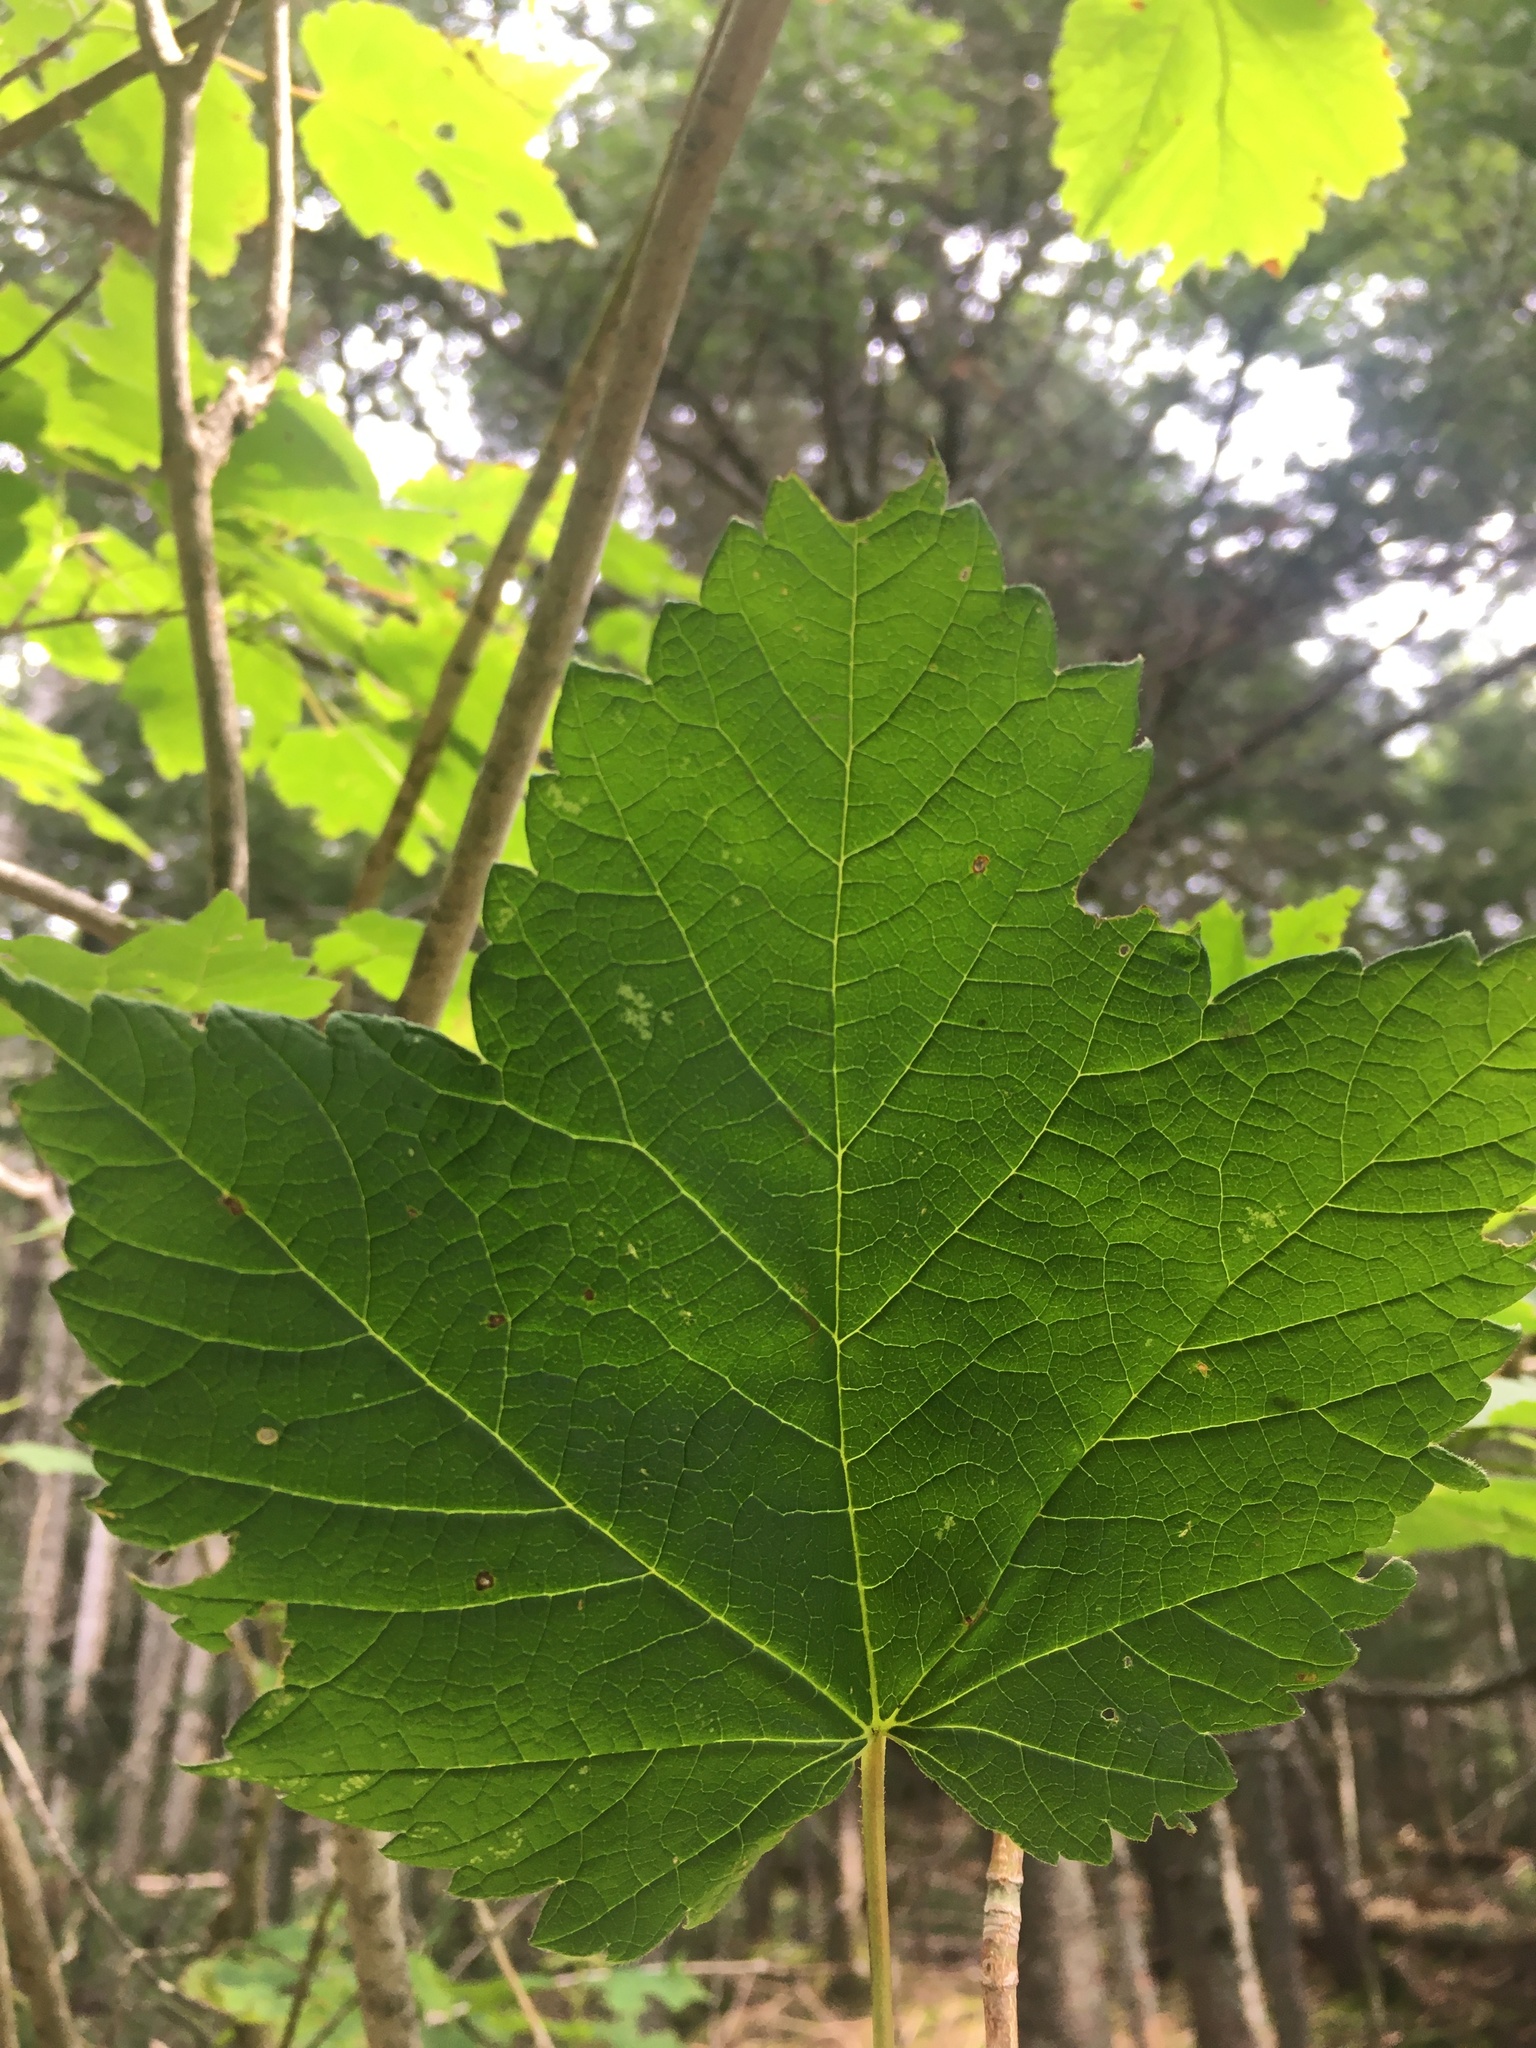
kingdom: Plantae
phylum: Tracheophyta
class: Magnoliopsida
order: Sapindales
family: Sapindaceae
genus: Acer
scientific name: Acer spicatum
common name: Mountain maple
